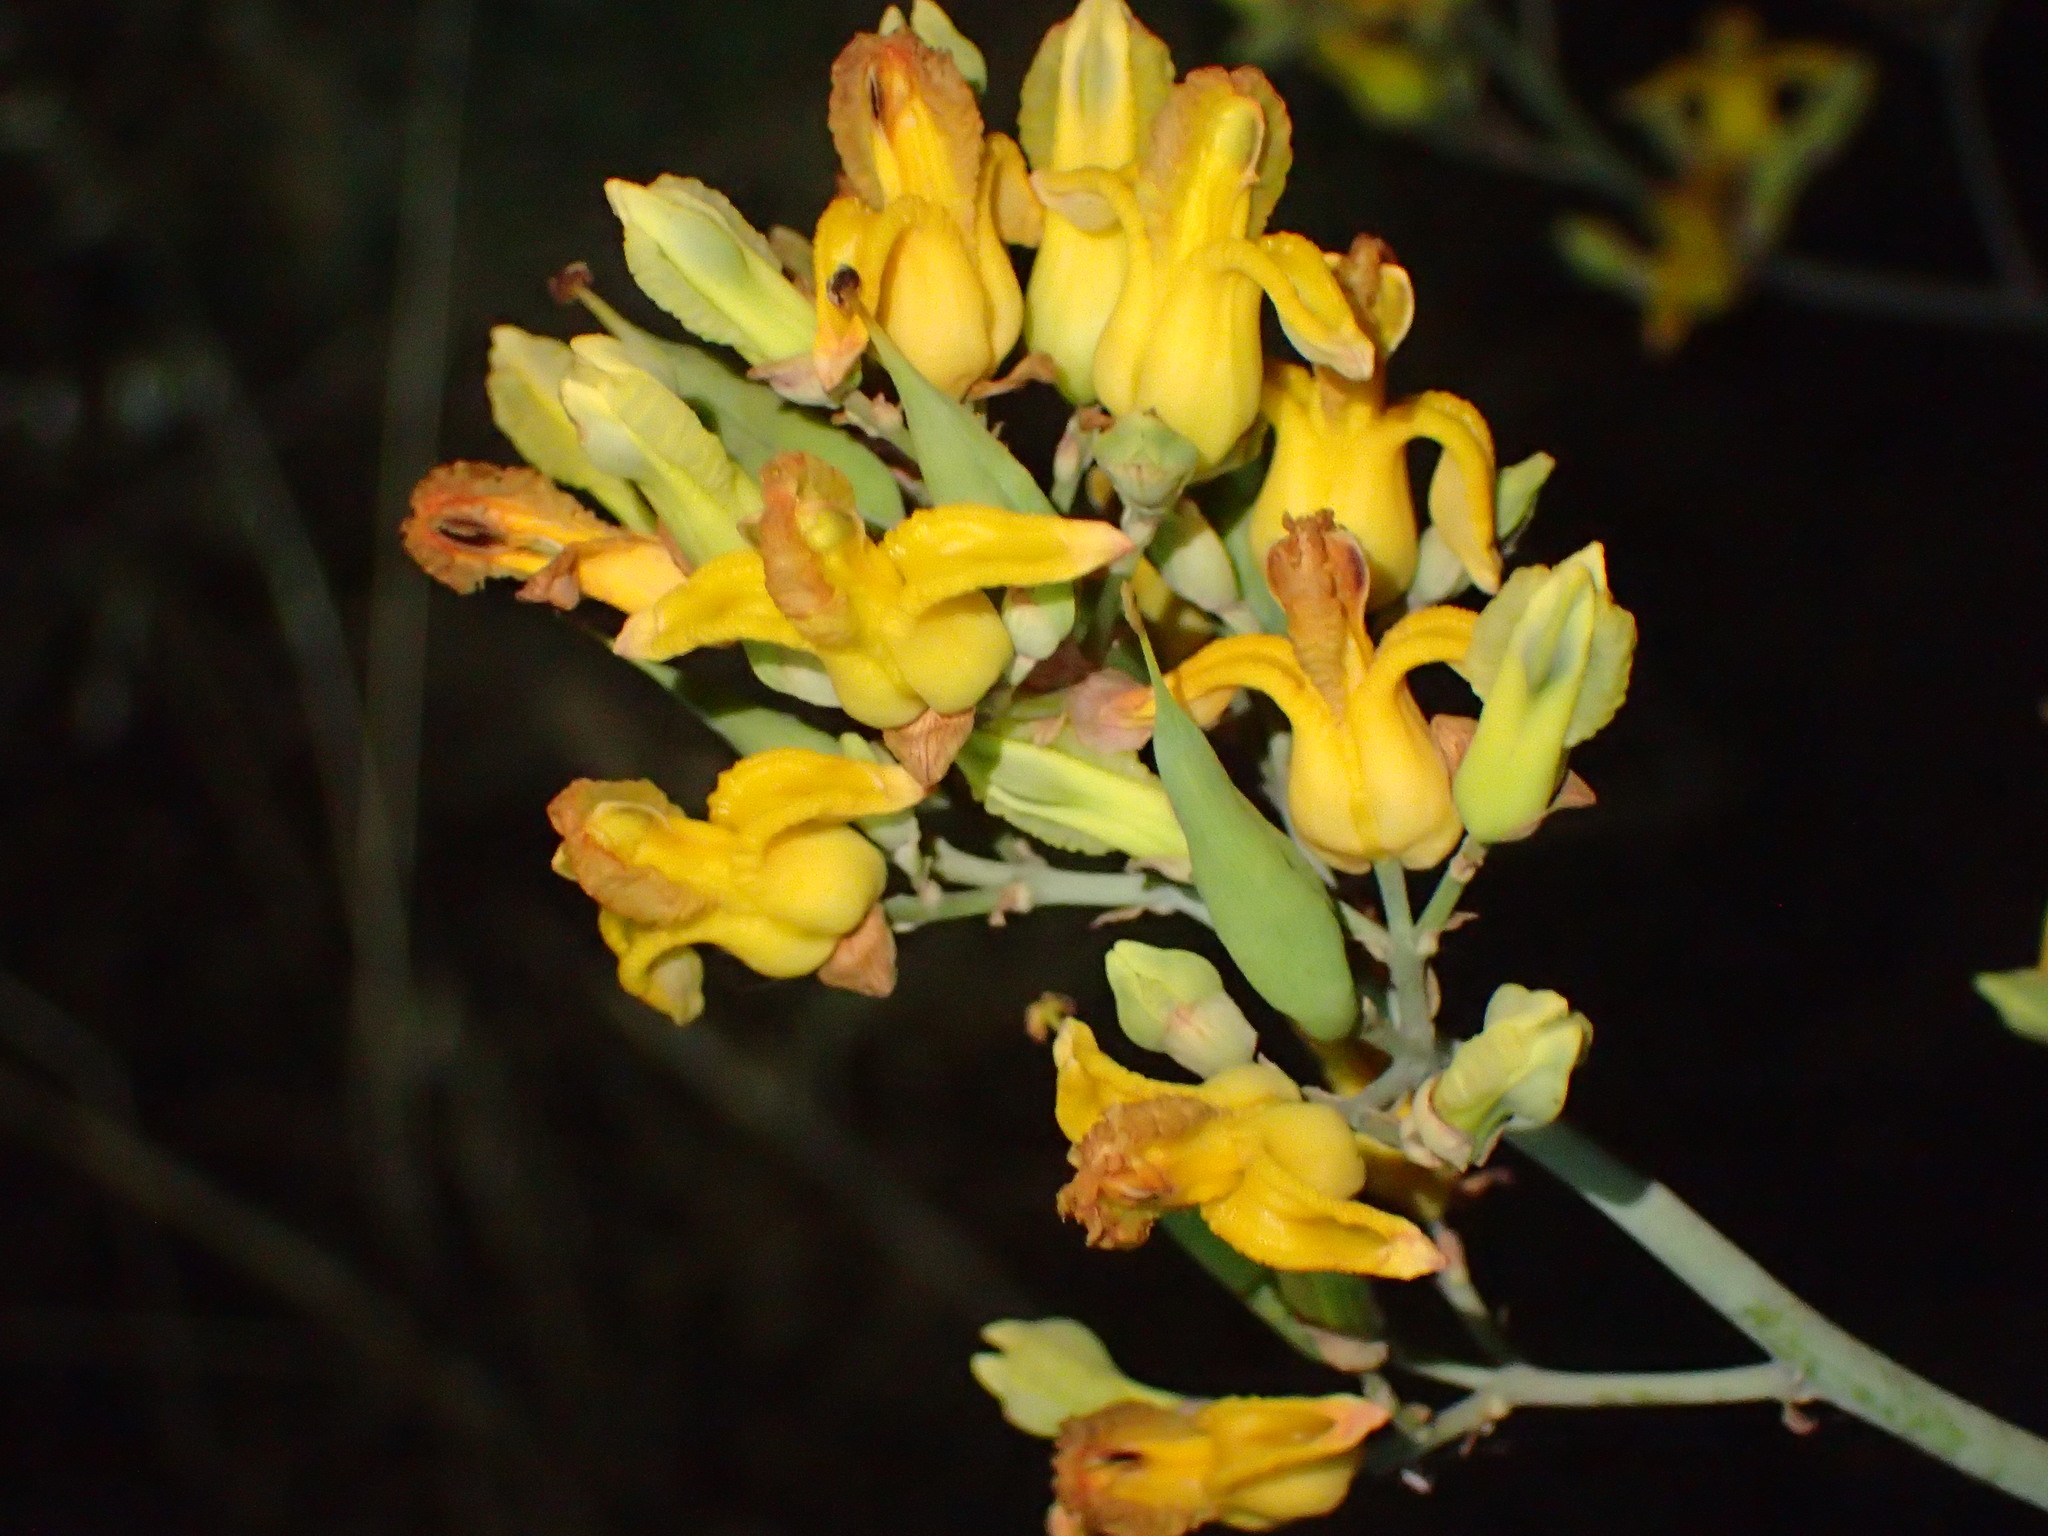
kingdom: Plantae
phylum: Tracheophyta
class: Magnoliopsida
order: Ranunculales
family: Papaveraceae
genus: Ehrendorferia
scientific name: Ehrendorferia chrysantha
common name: Golden eardrops
